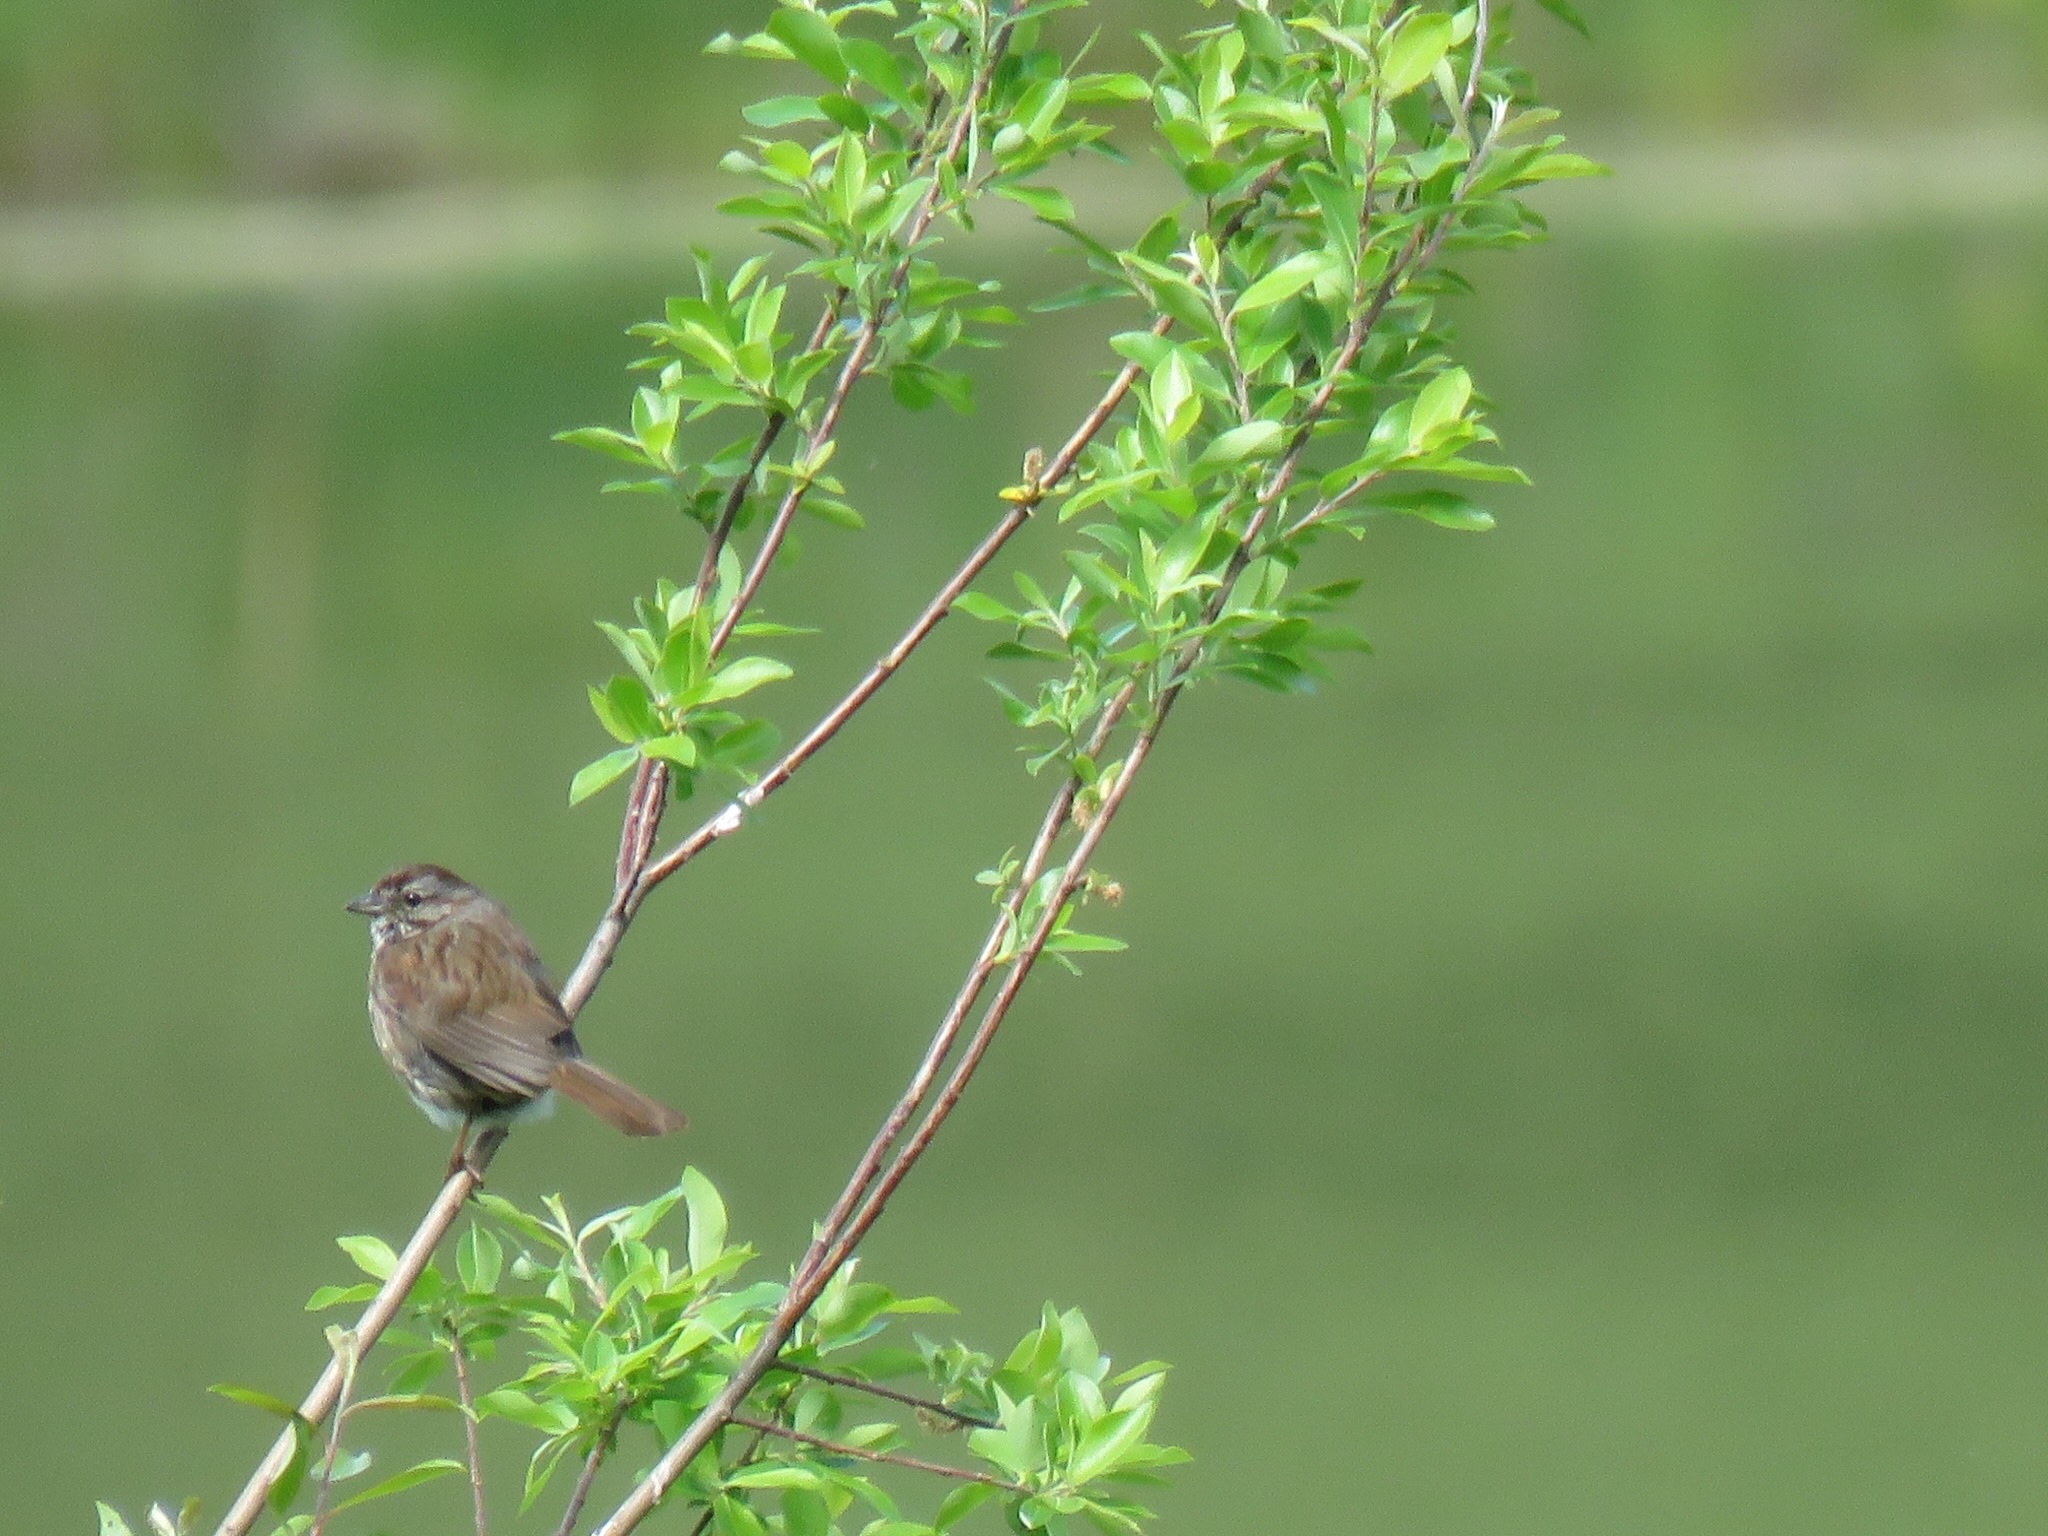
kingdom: Animalia
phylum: Chordata
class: Aves
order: Passeriformes
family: Passerellidae
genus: Melospiza
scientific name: Melospiza melodia
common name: Song sparrow
